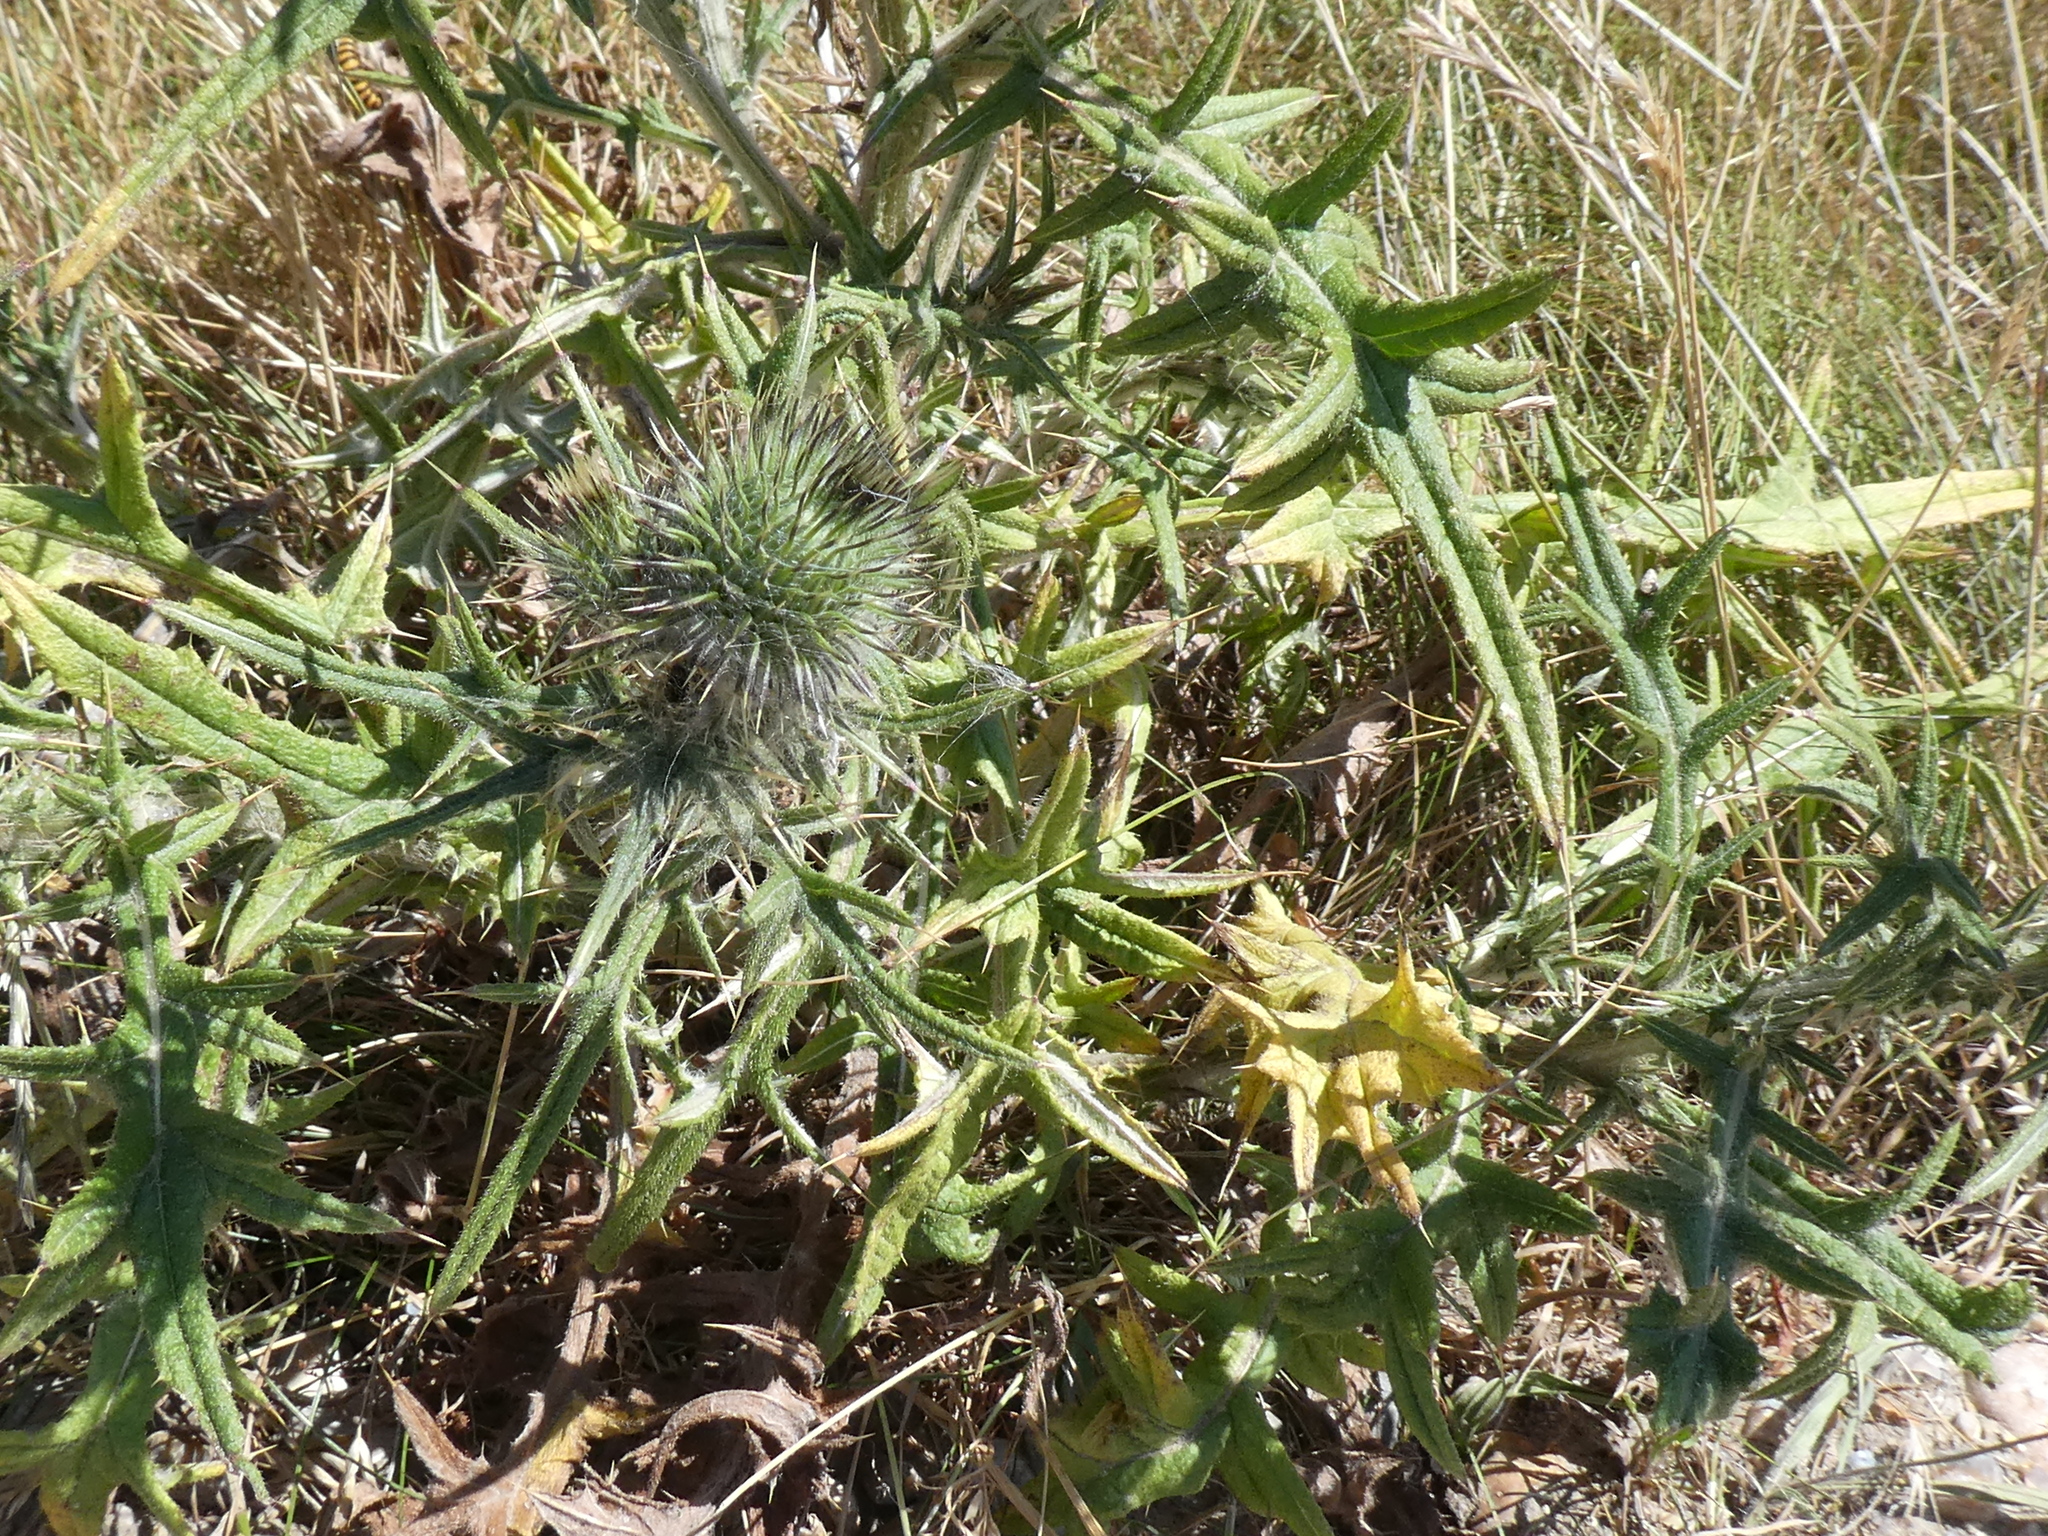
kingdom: Plantae
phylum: Tracheophyta
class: Magnoliopsida
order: Asterales
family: Asteraceae
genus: Cirsium
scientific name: Cirsium vulgare
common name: Bull thistle
